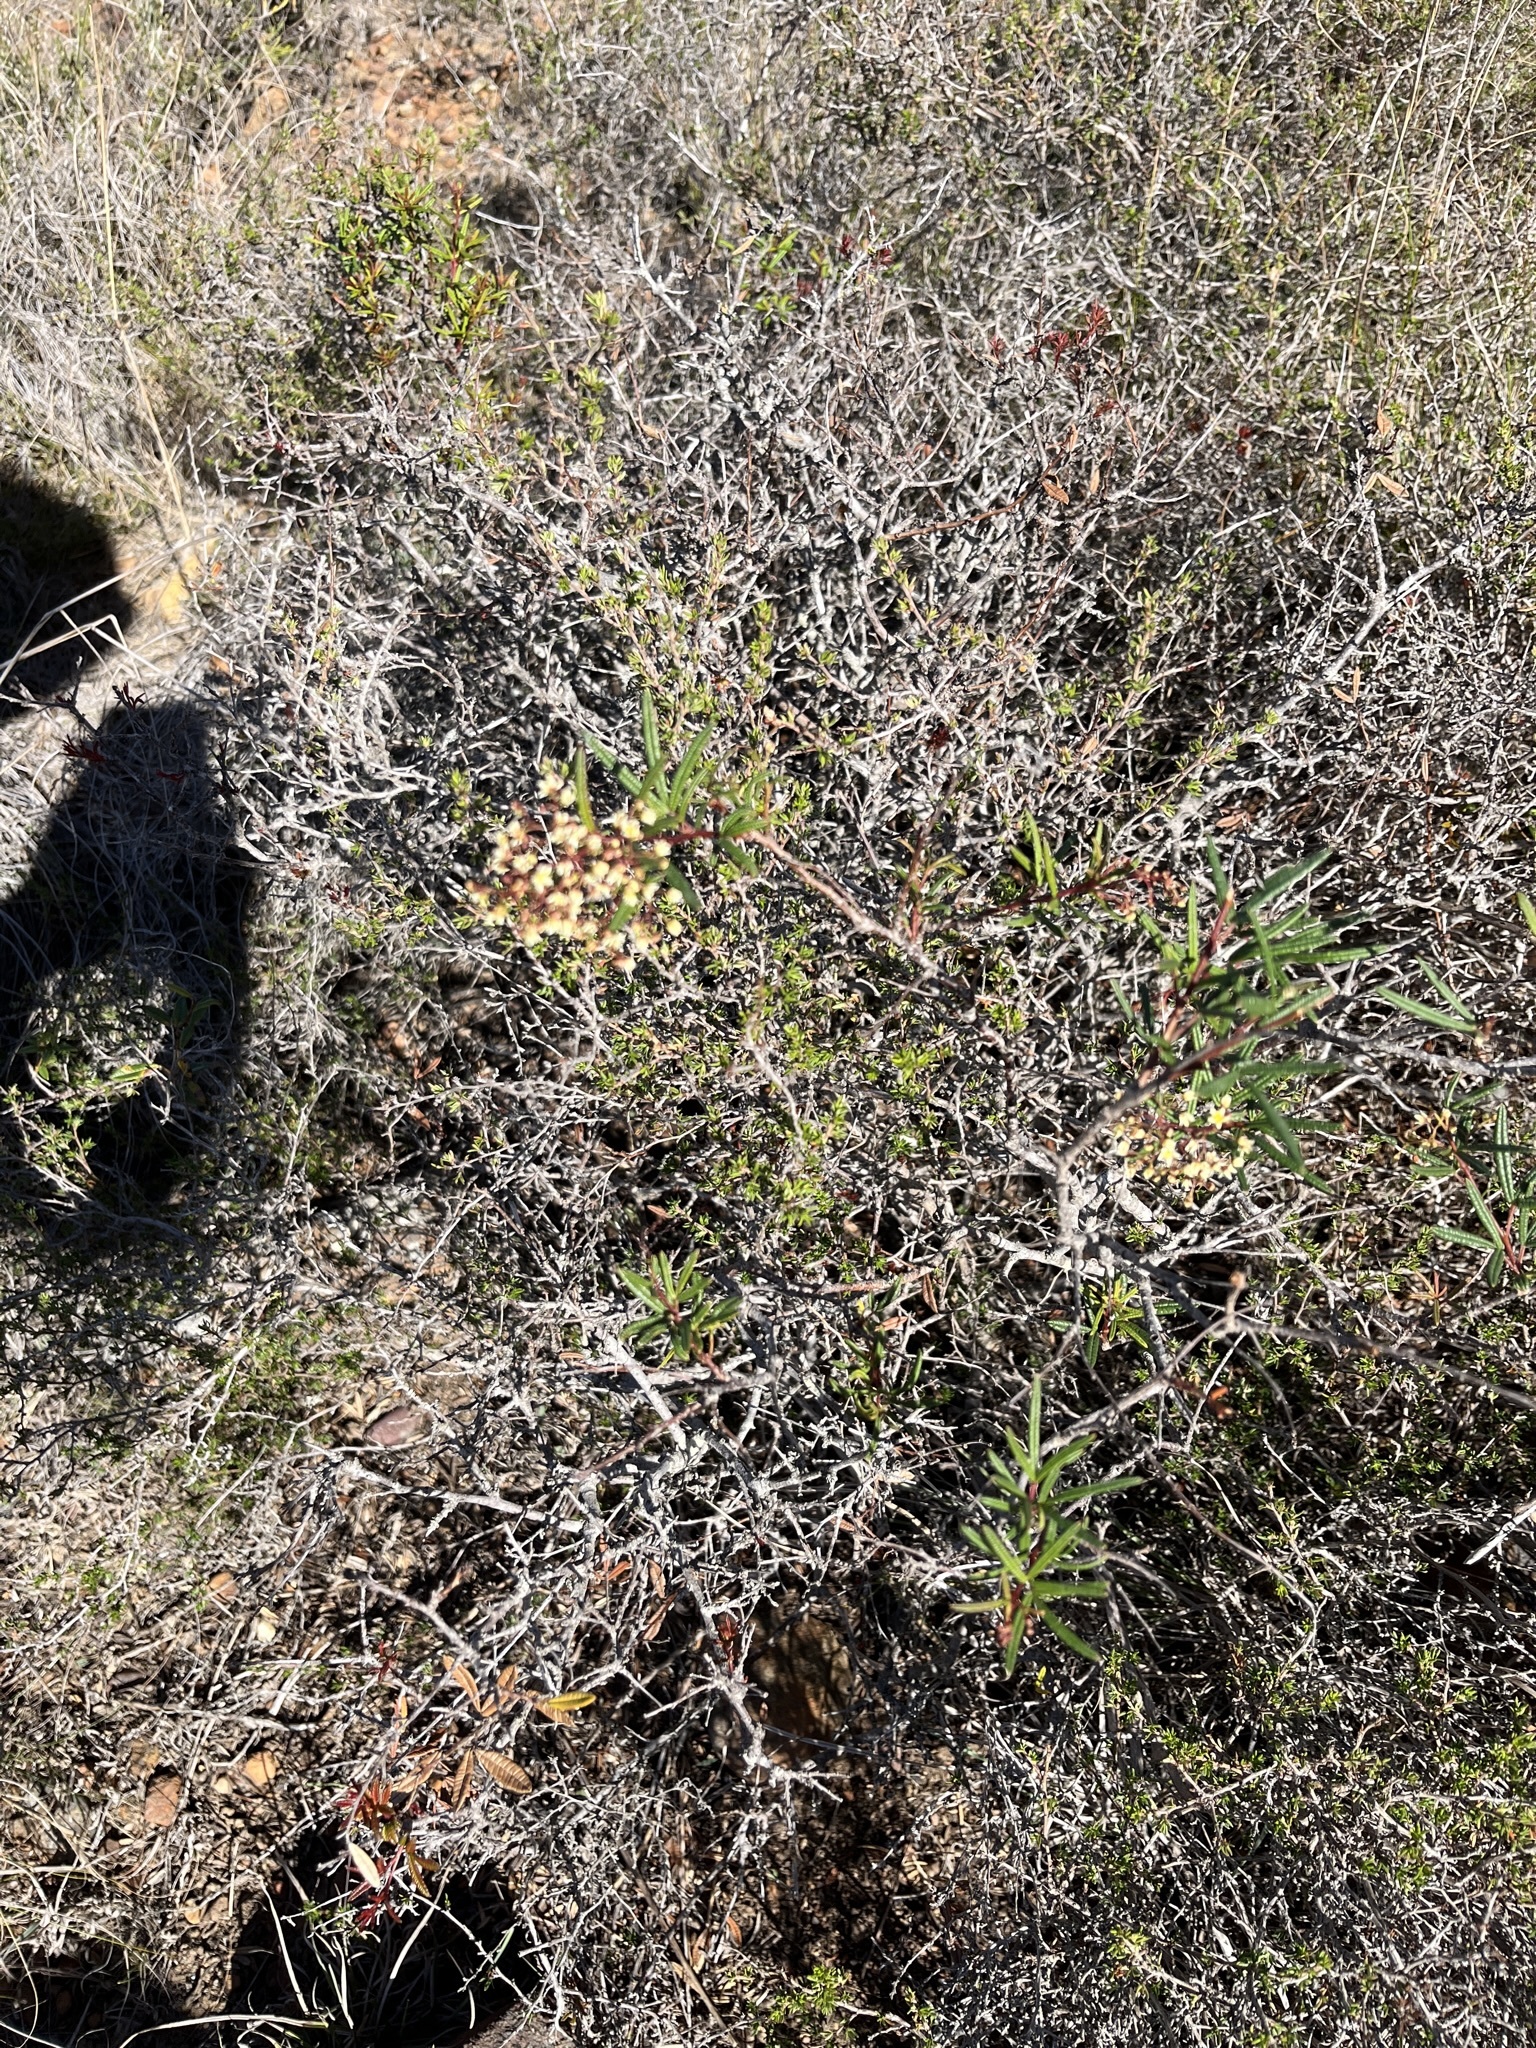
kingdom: Plantae
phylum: Tracheophyta
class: Magnoliopsida
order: Sapindales
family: Anacardiaceae
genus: Searsia
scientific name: Searsia rosmarinifolia
